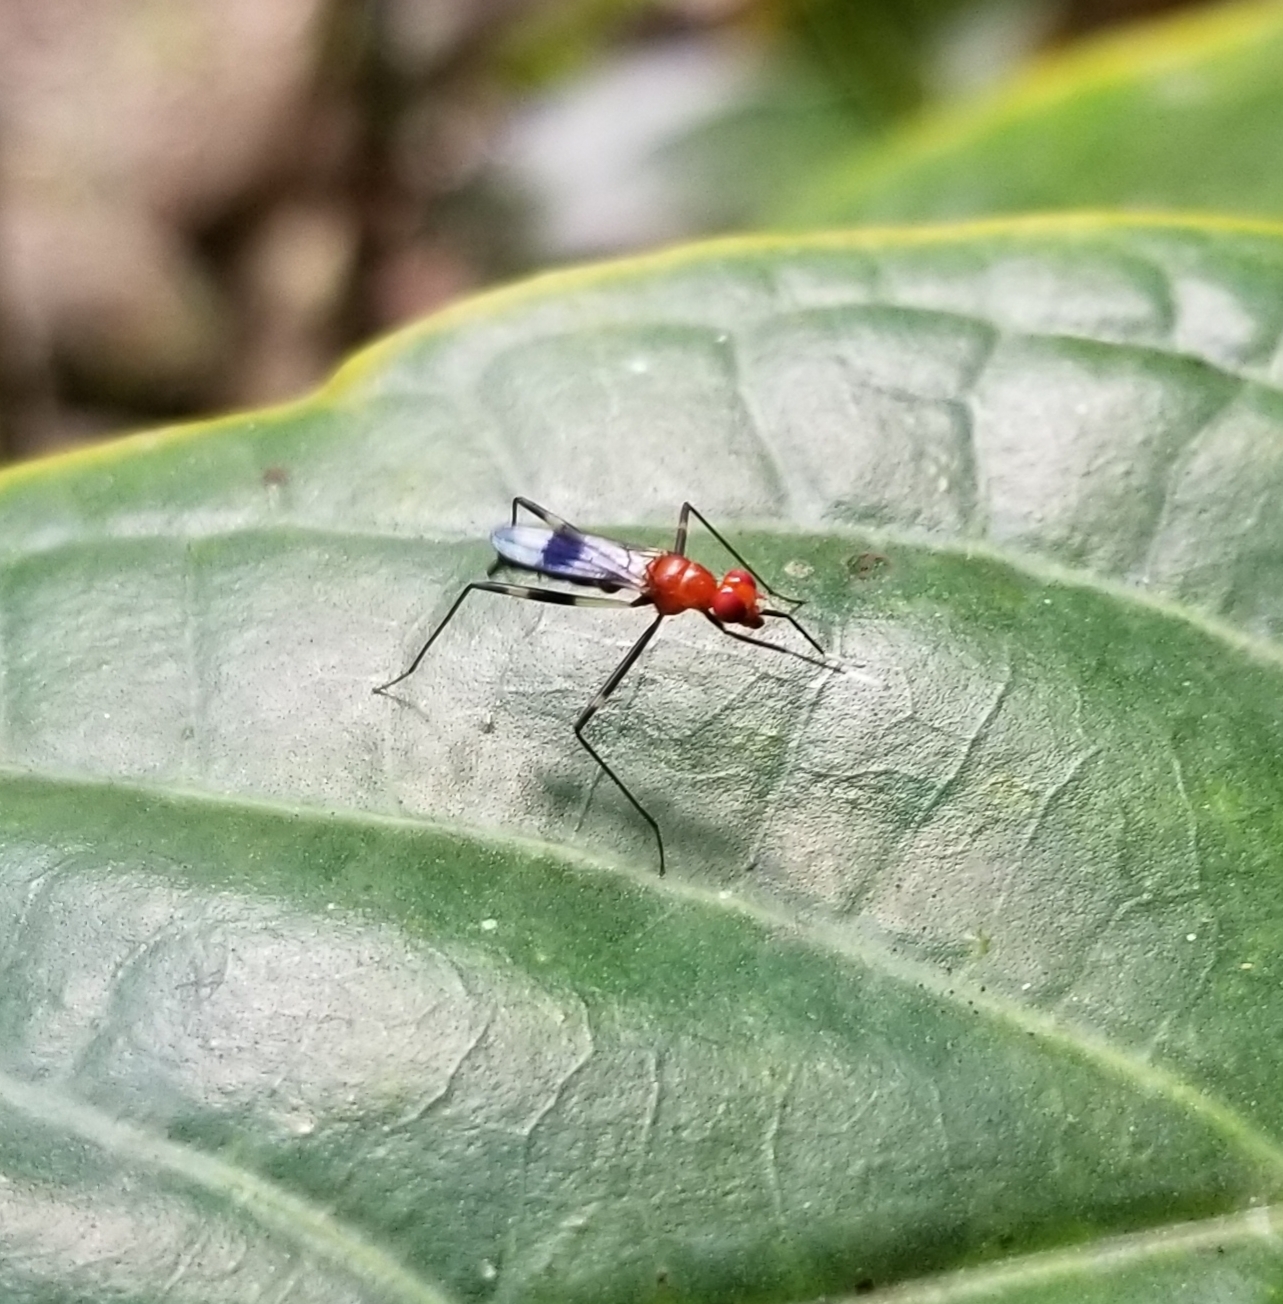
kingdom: Animalia
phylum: Arthropoda
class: Insecta
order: Diptera
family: Micropezidae
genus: Grallipeza
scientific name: Grallipeza scurra
